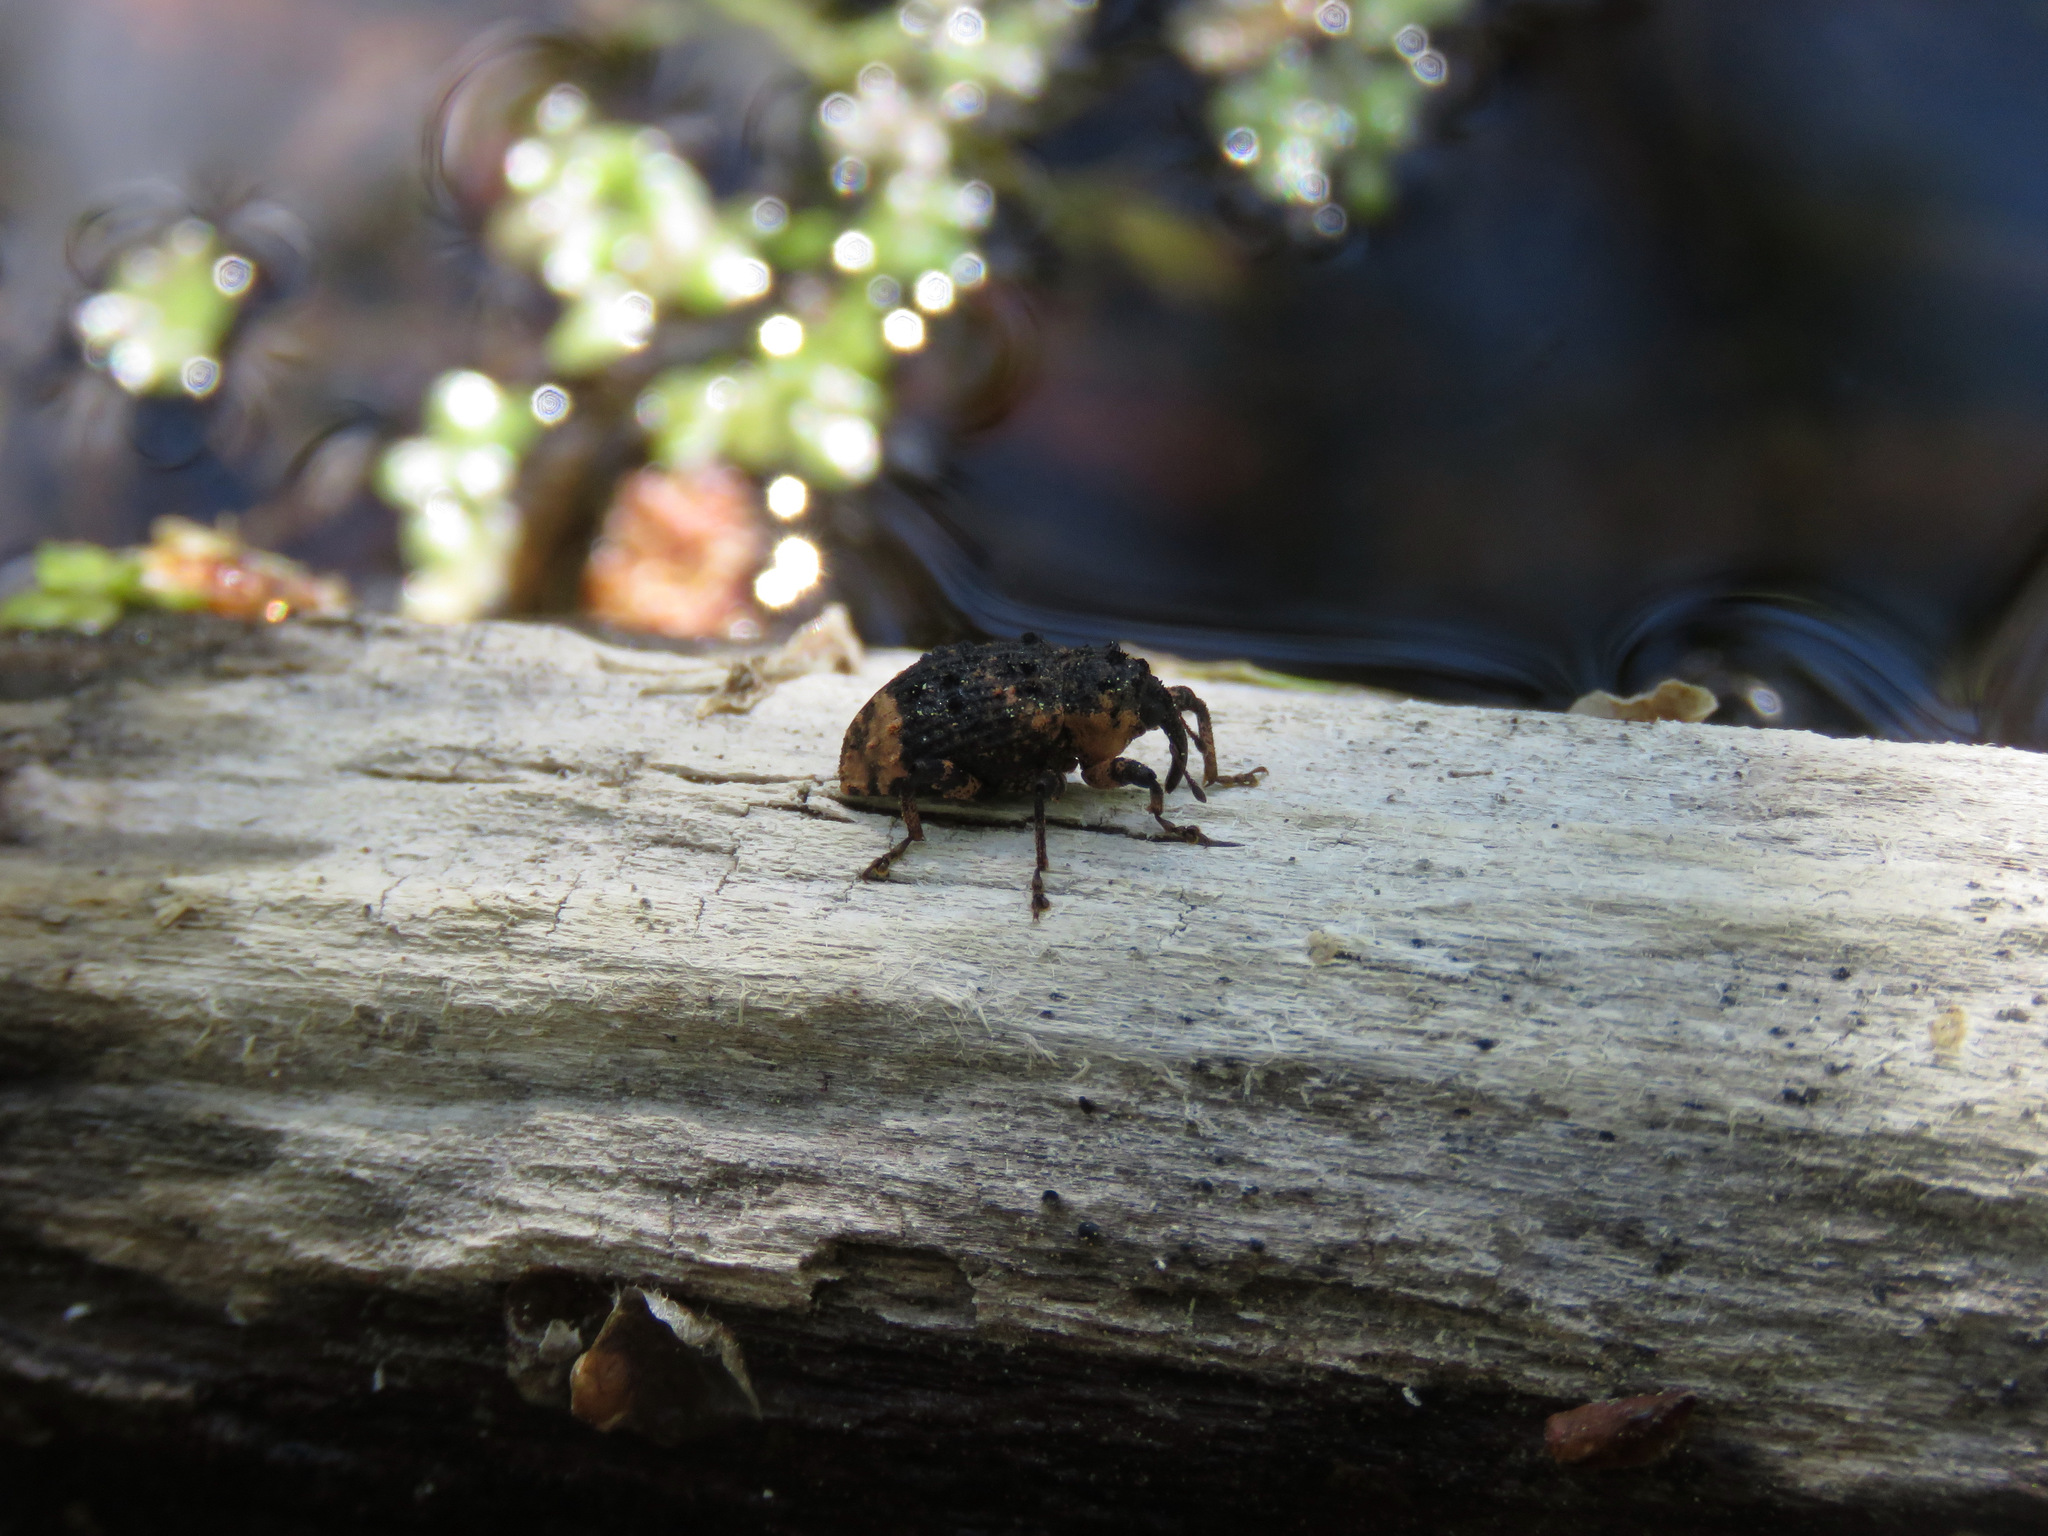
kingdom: Animalia
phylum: Arthropoda
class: Insecta
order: Coleoptera
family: Curculionidae
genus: Cryptorhynchus
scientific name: Cryptorhynchus lapathi
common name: Weevil
